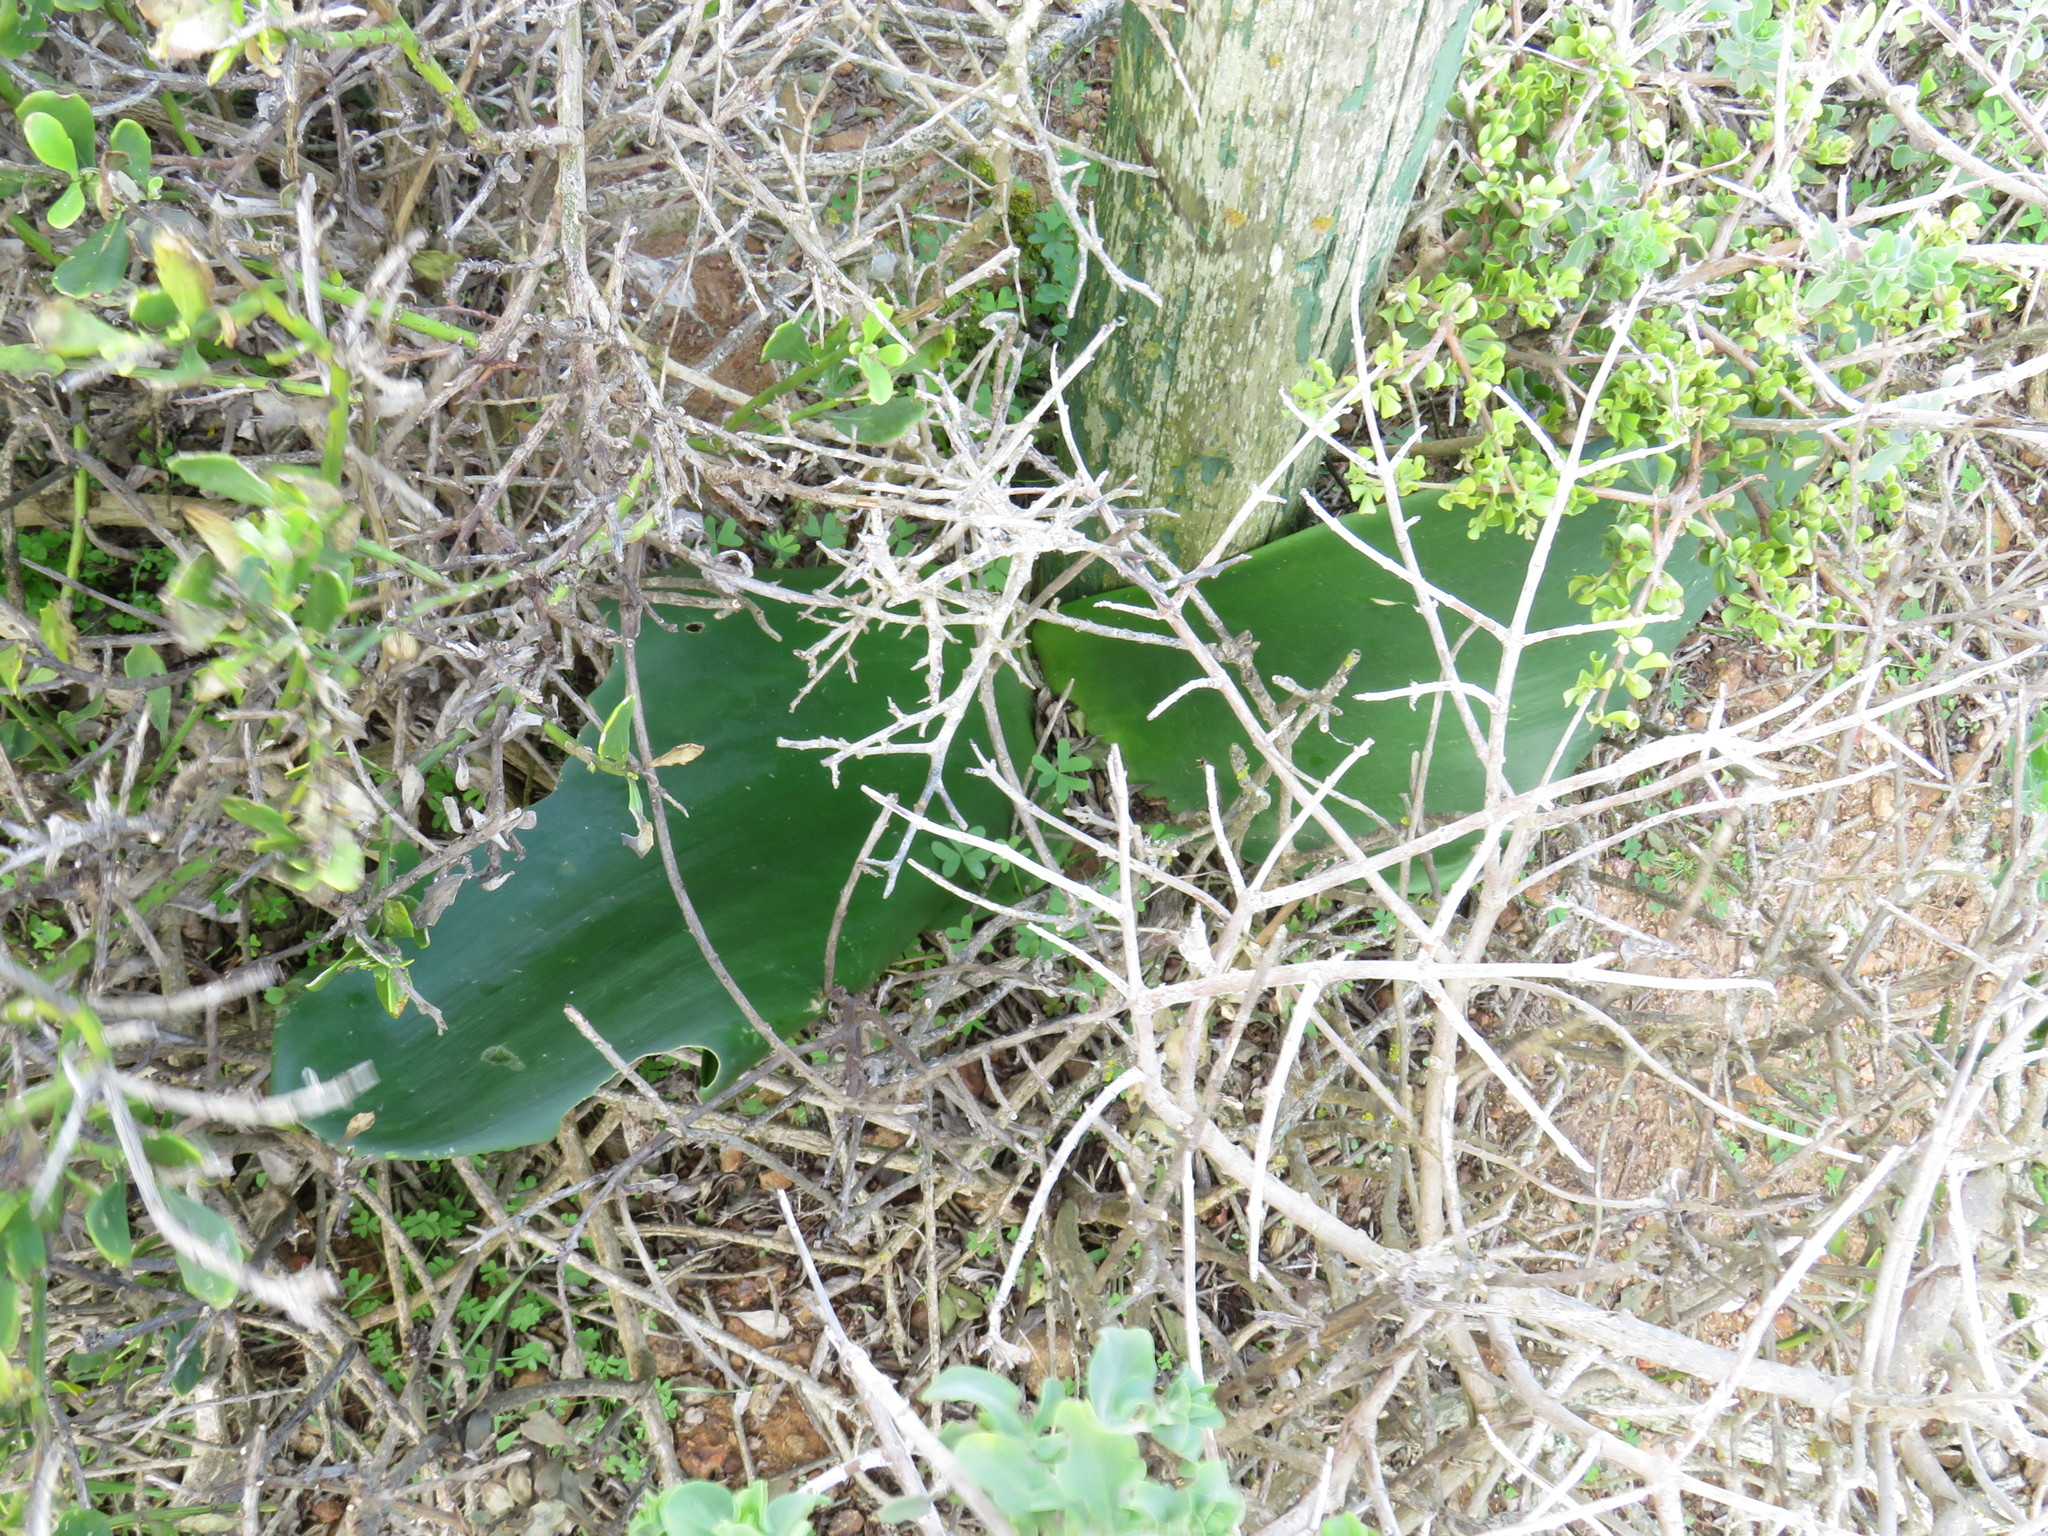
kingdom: Plantae
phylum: Tracheophyta
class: Liliopsida
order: Asparagales
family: Amaryllidaceae
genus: Haemanthus
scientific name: Haemanthus coccineus
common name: Cape-tulip
